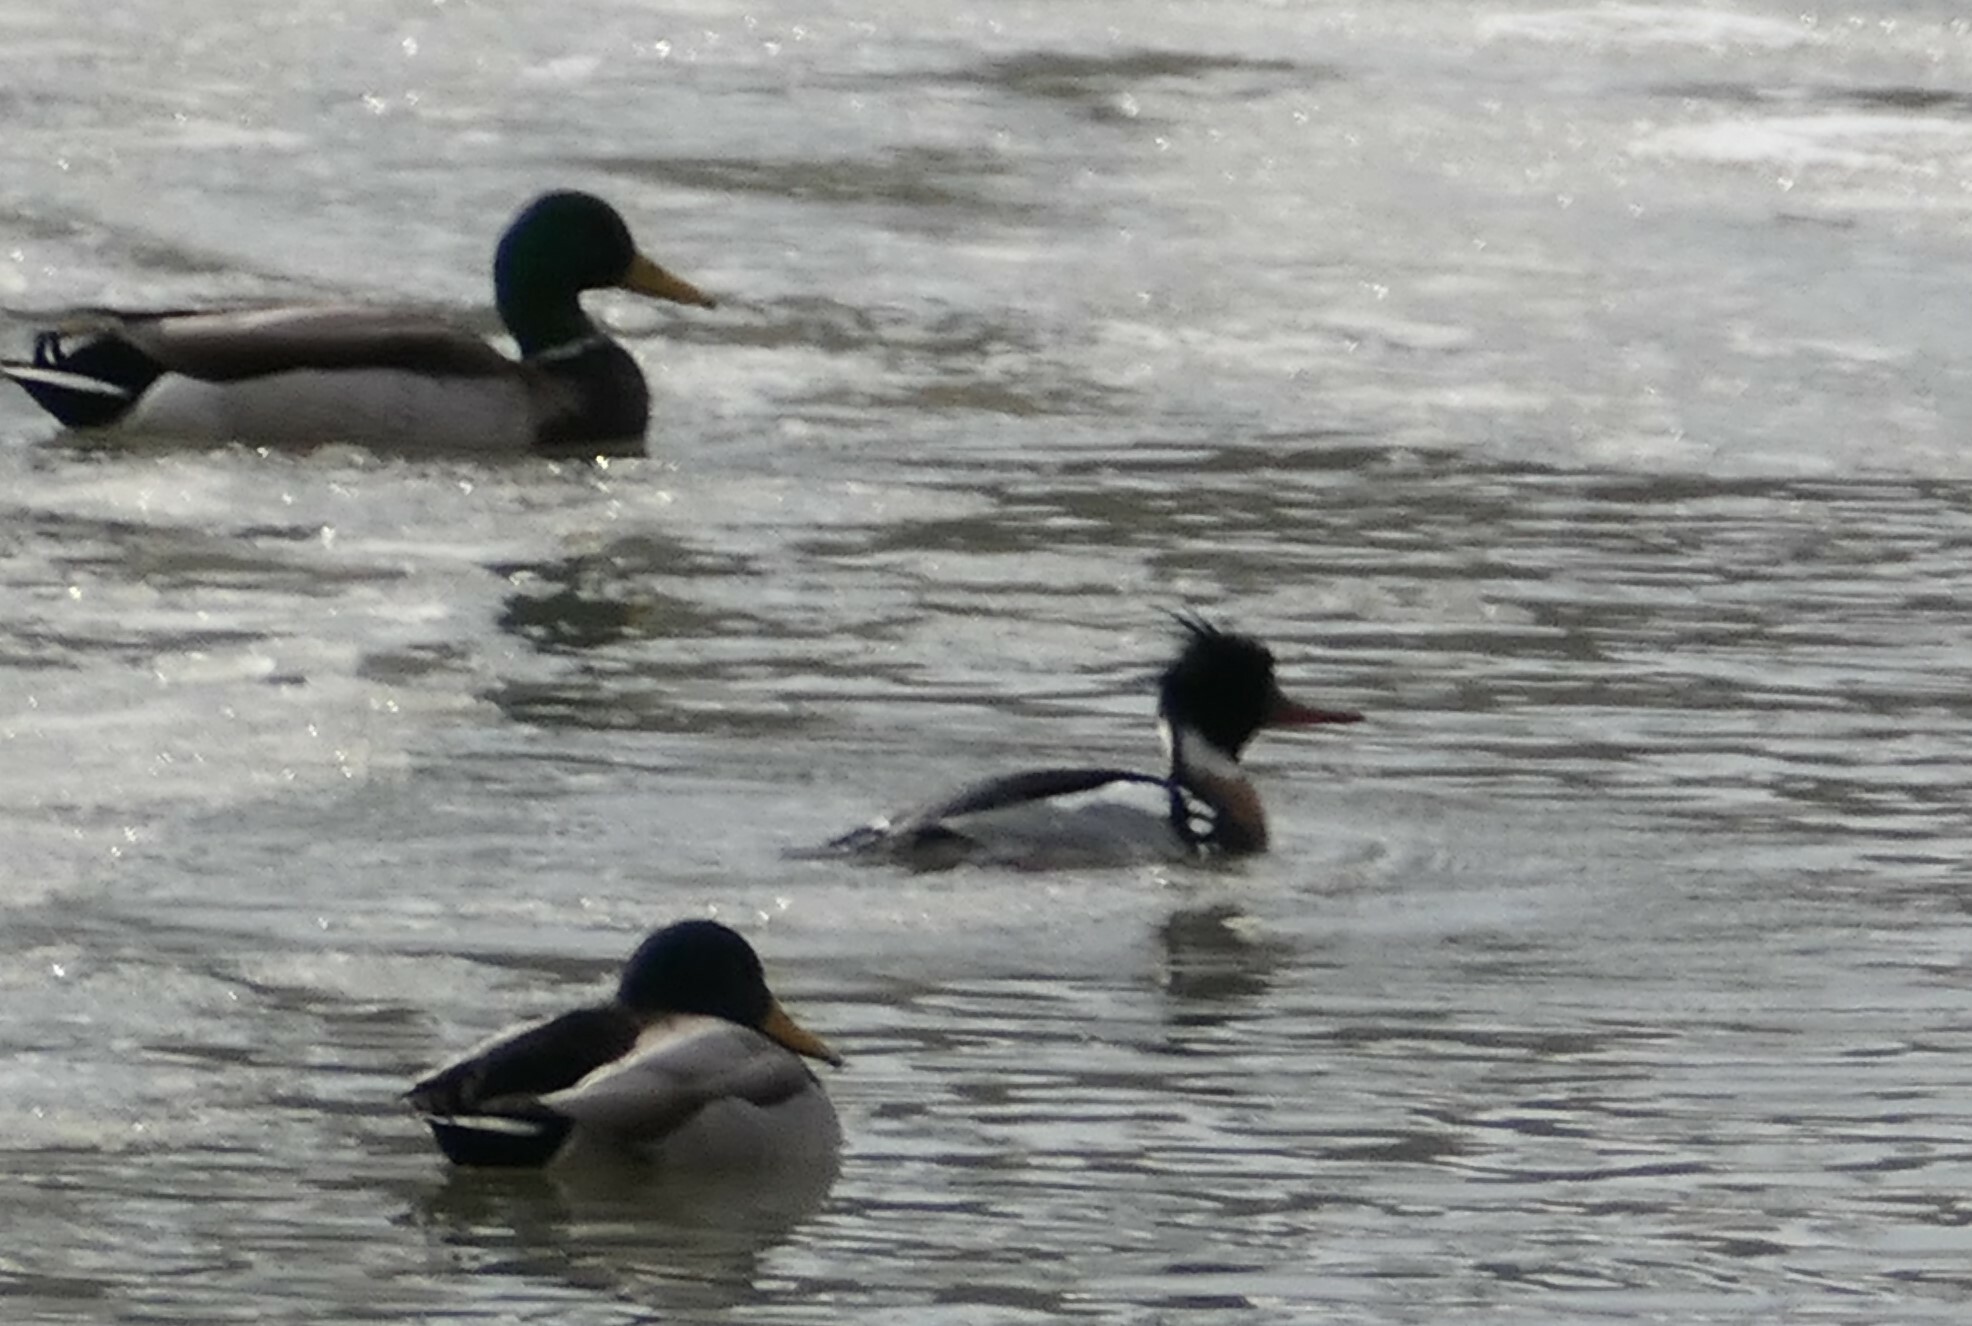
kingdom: Animalia
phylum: Chordata
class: Aves
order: Anseriformes
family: Anatidae
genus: Mergus
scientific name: Mergus serrator
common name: Red-breasted merganser
